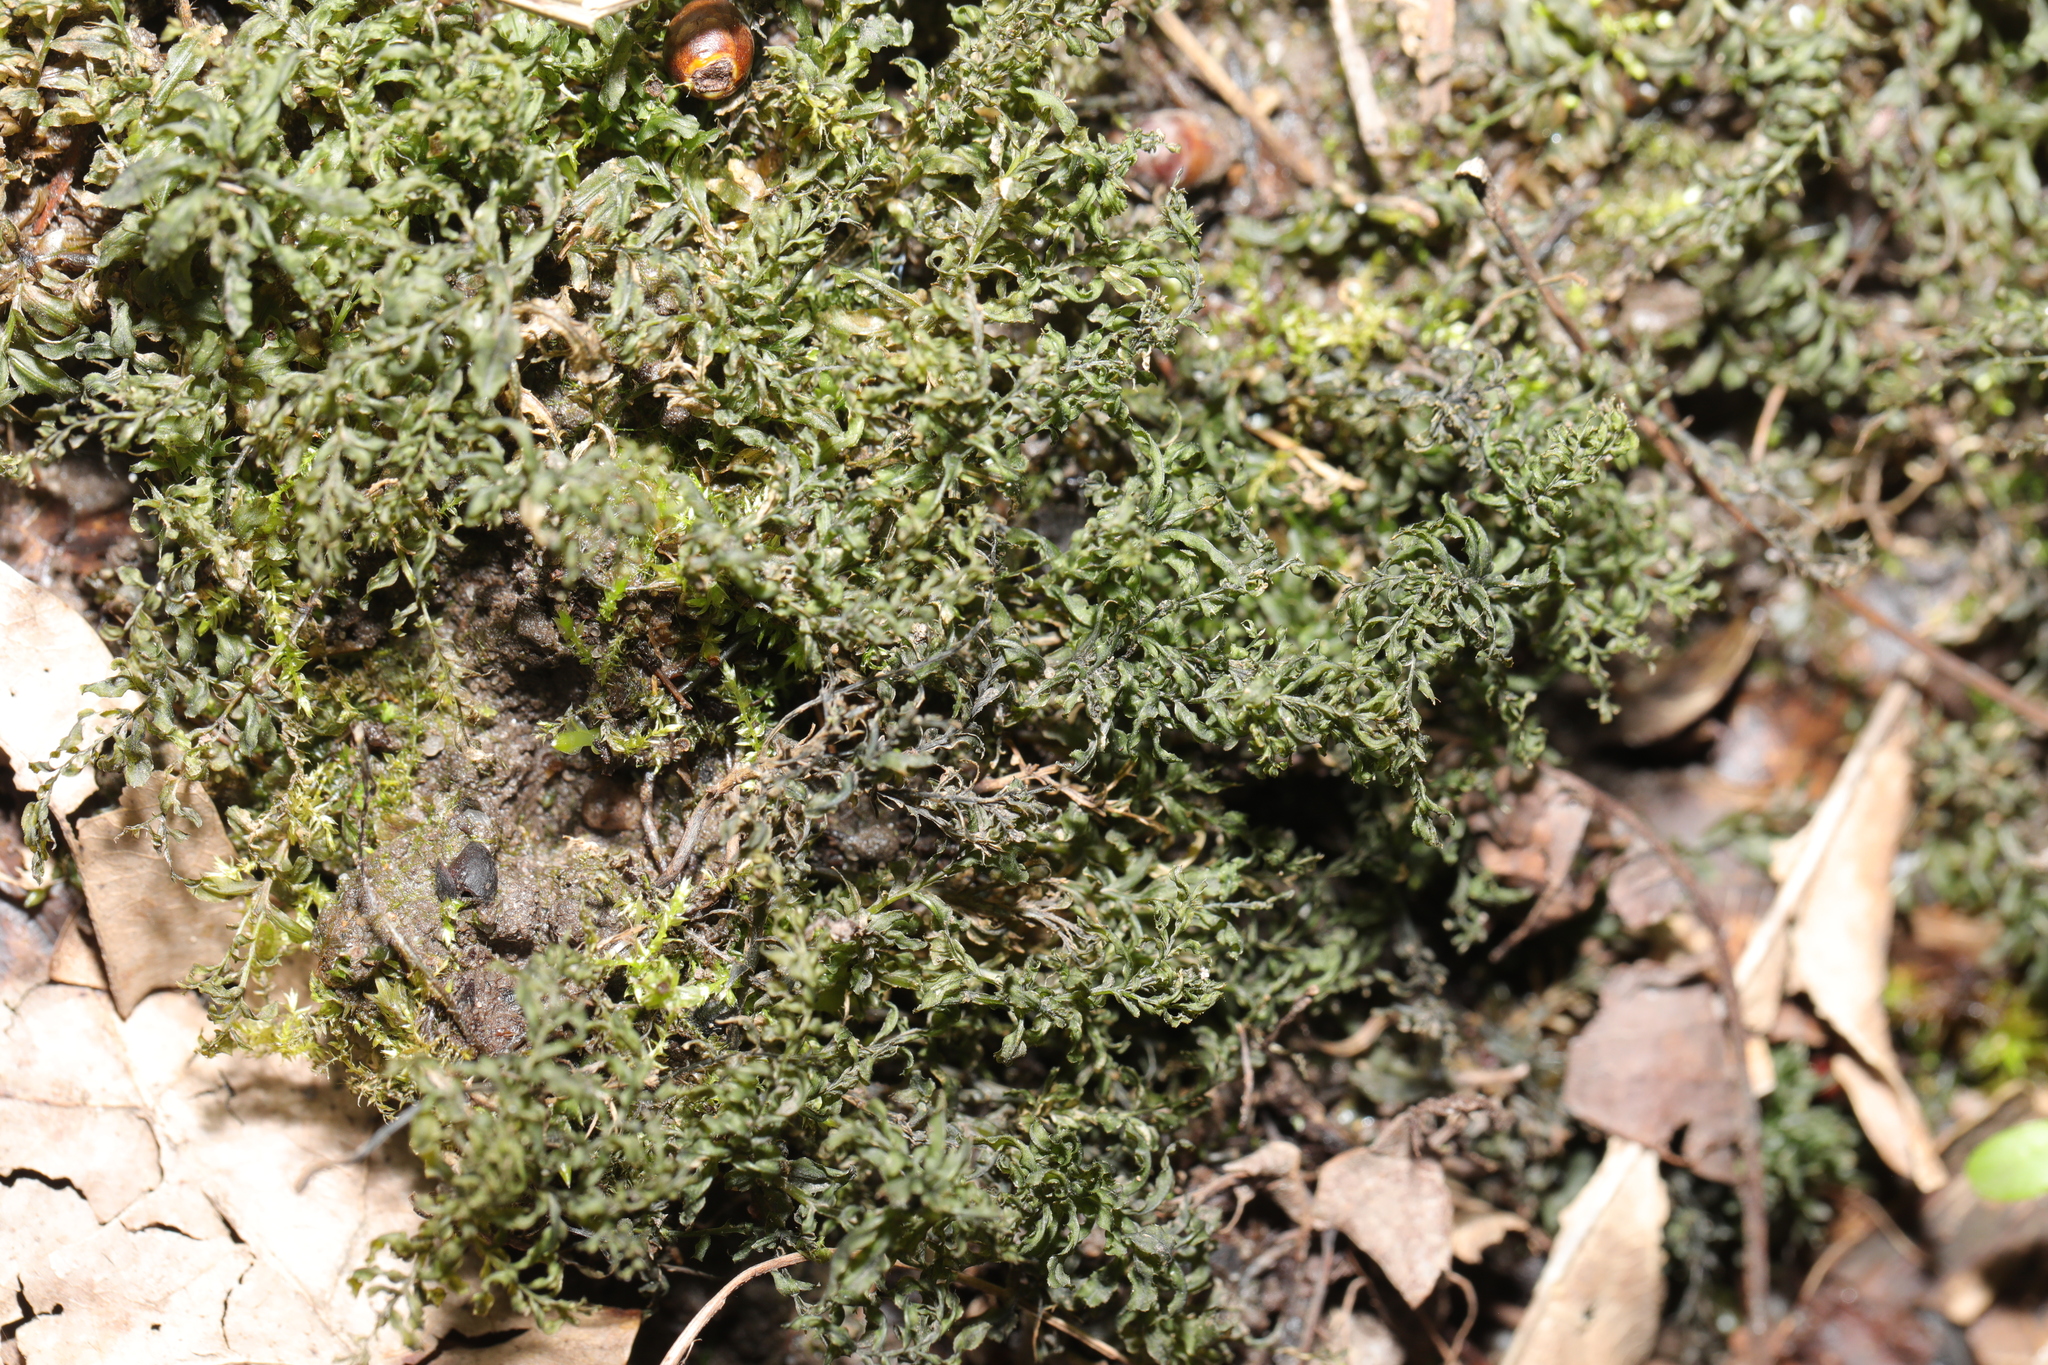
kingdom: Plantae
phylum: Bryophyta
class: Bryopsida
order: Bryales
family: Mniaceae
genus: Plagiomnium
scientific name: Plagiomnium undulatum
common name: Hart's-tongue thyme-moss
